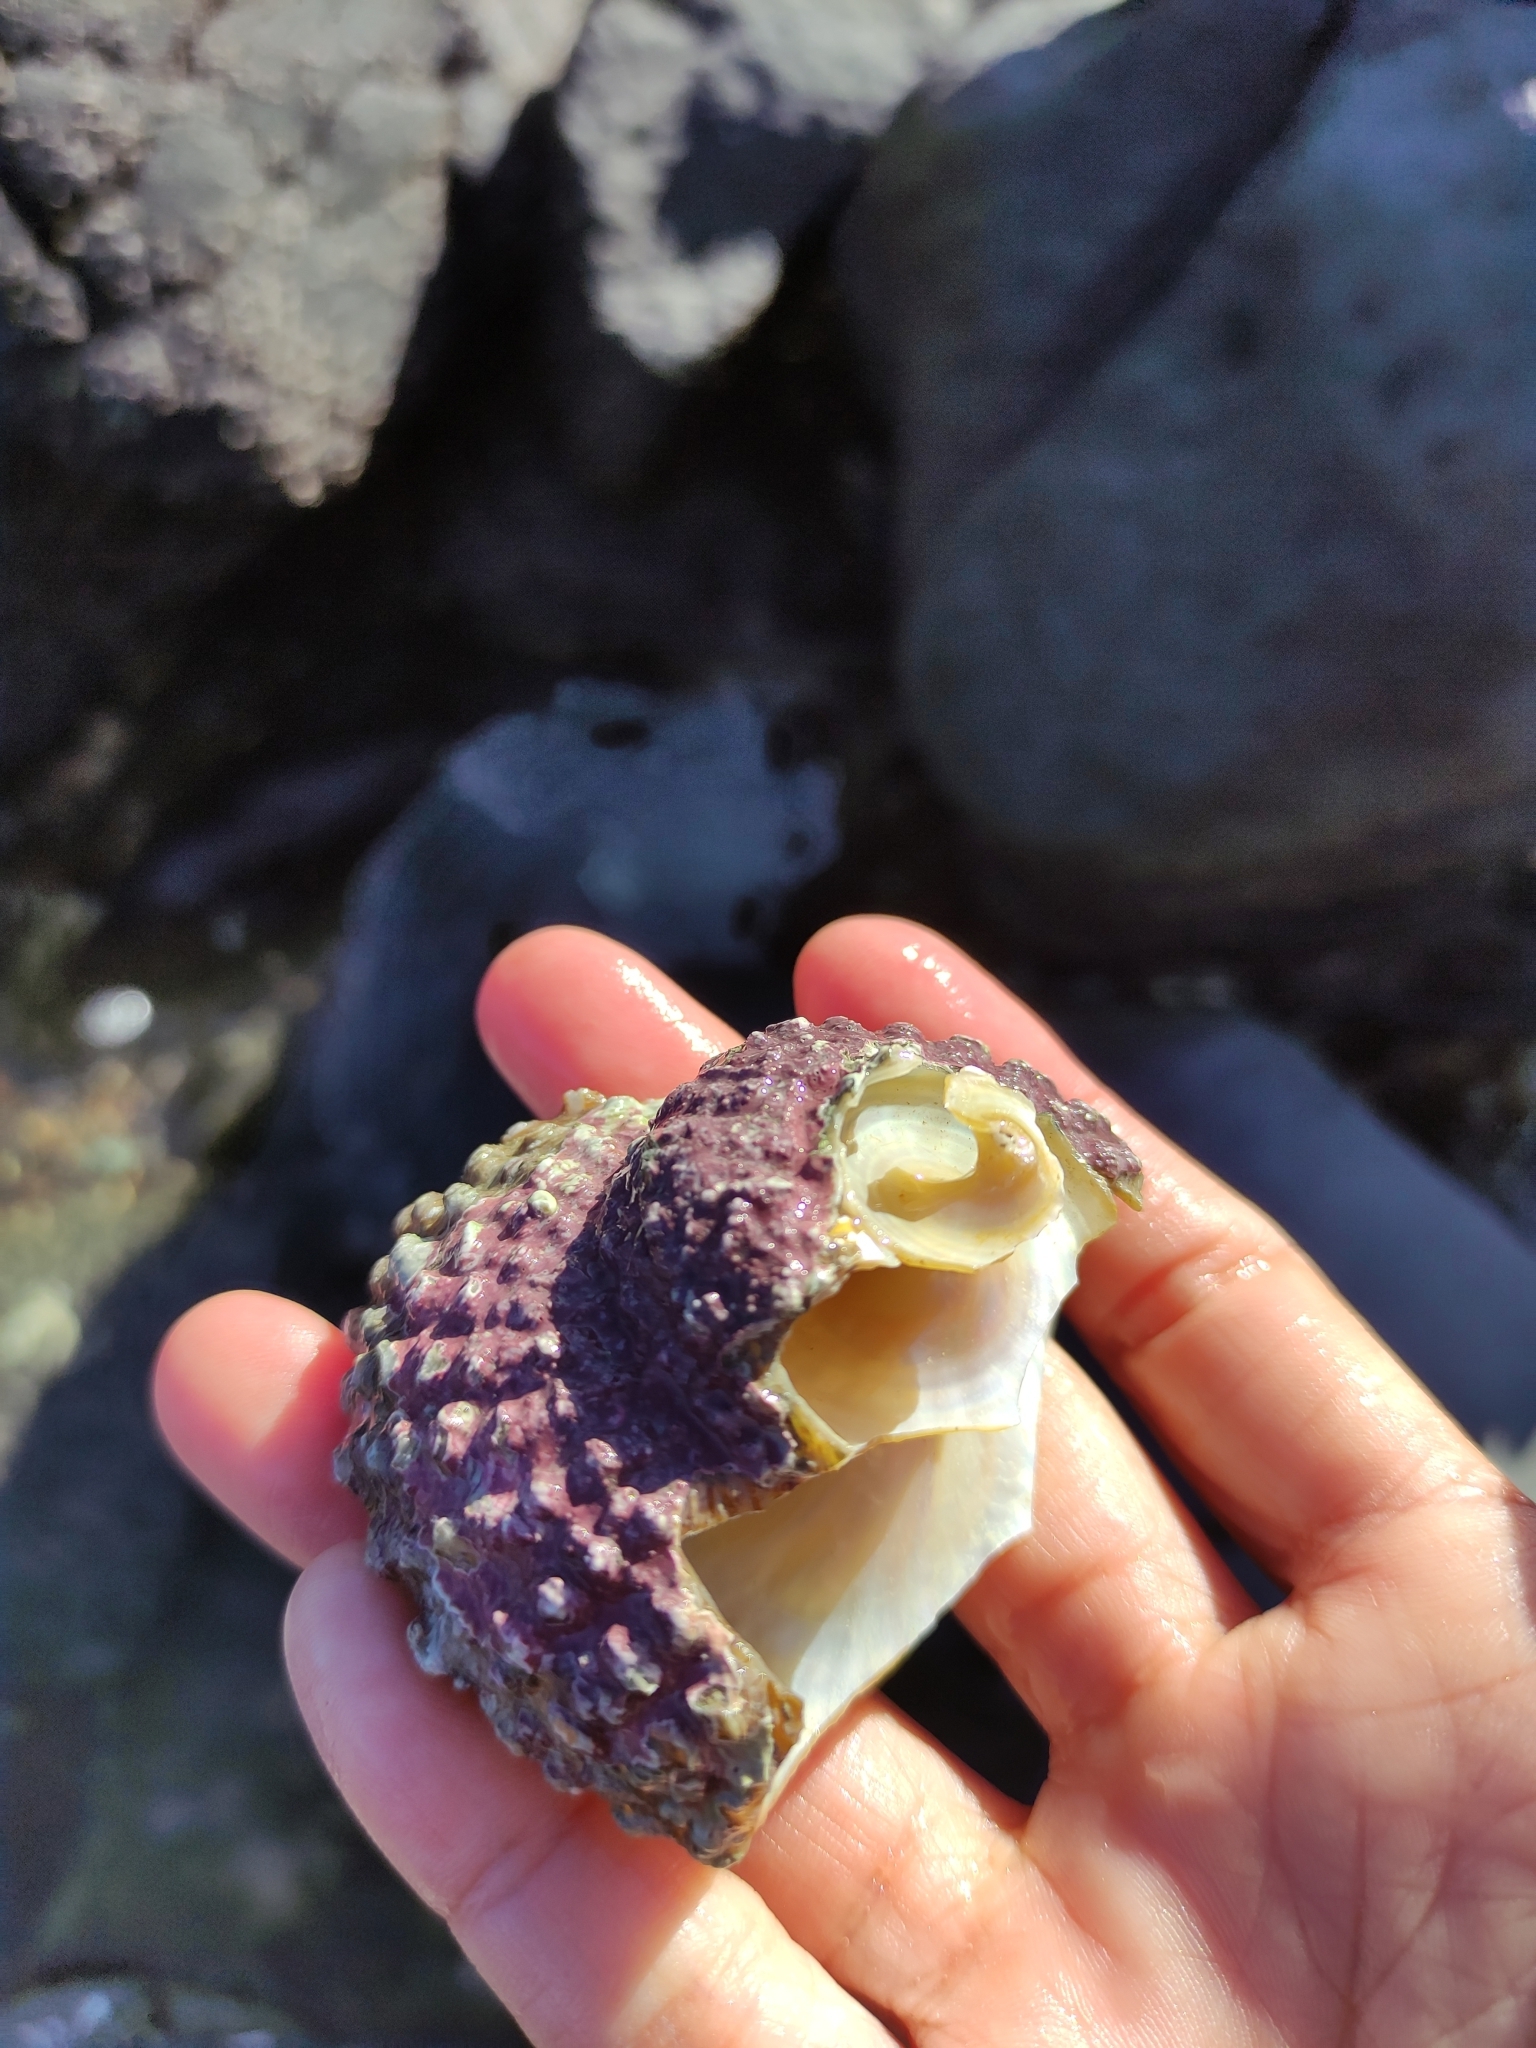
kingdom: Animalia
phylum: Mollusca
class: Gastropoda
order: Trochida
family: Turbinidae
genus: Cookia
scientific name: Cookia sulcata
